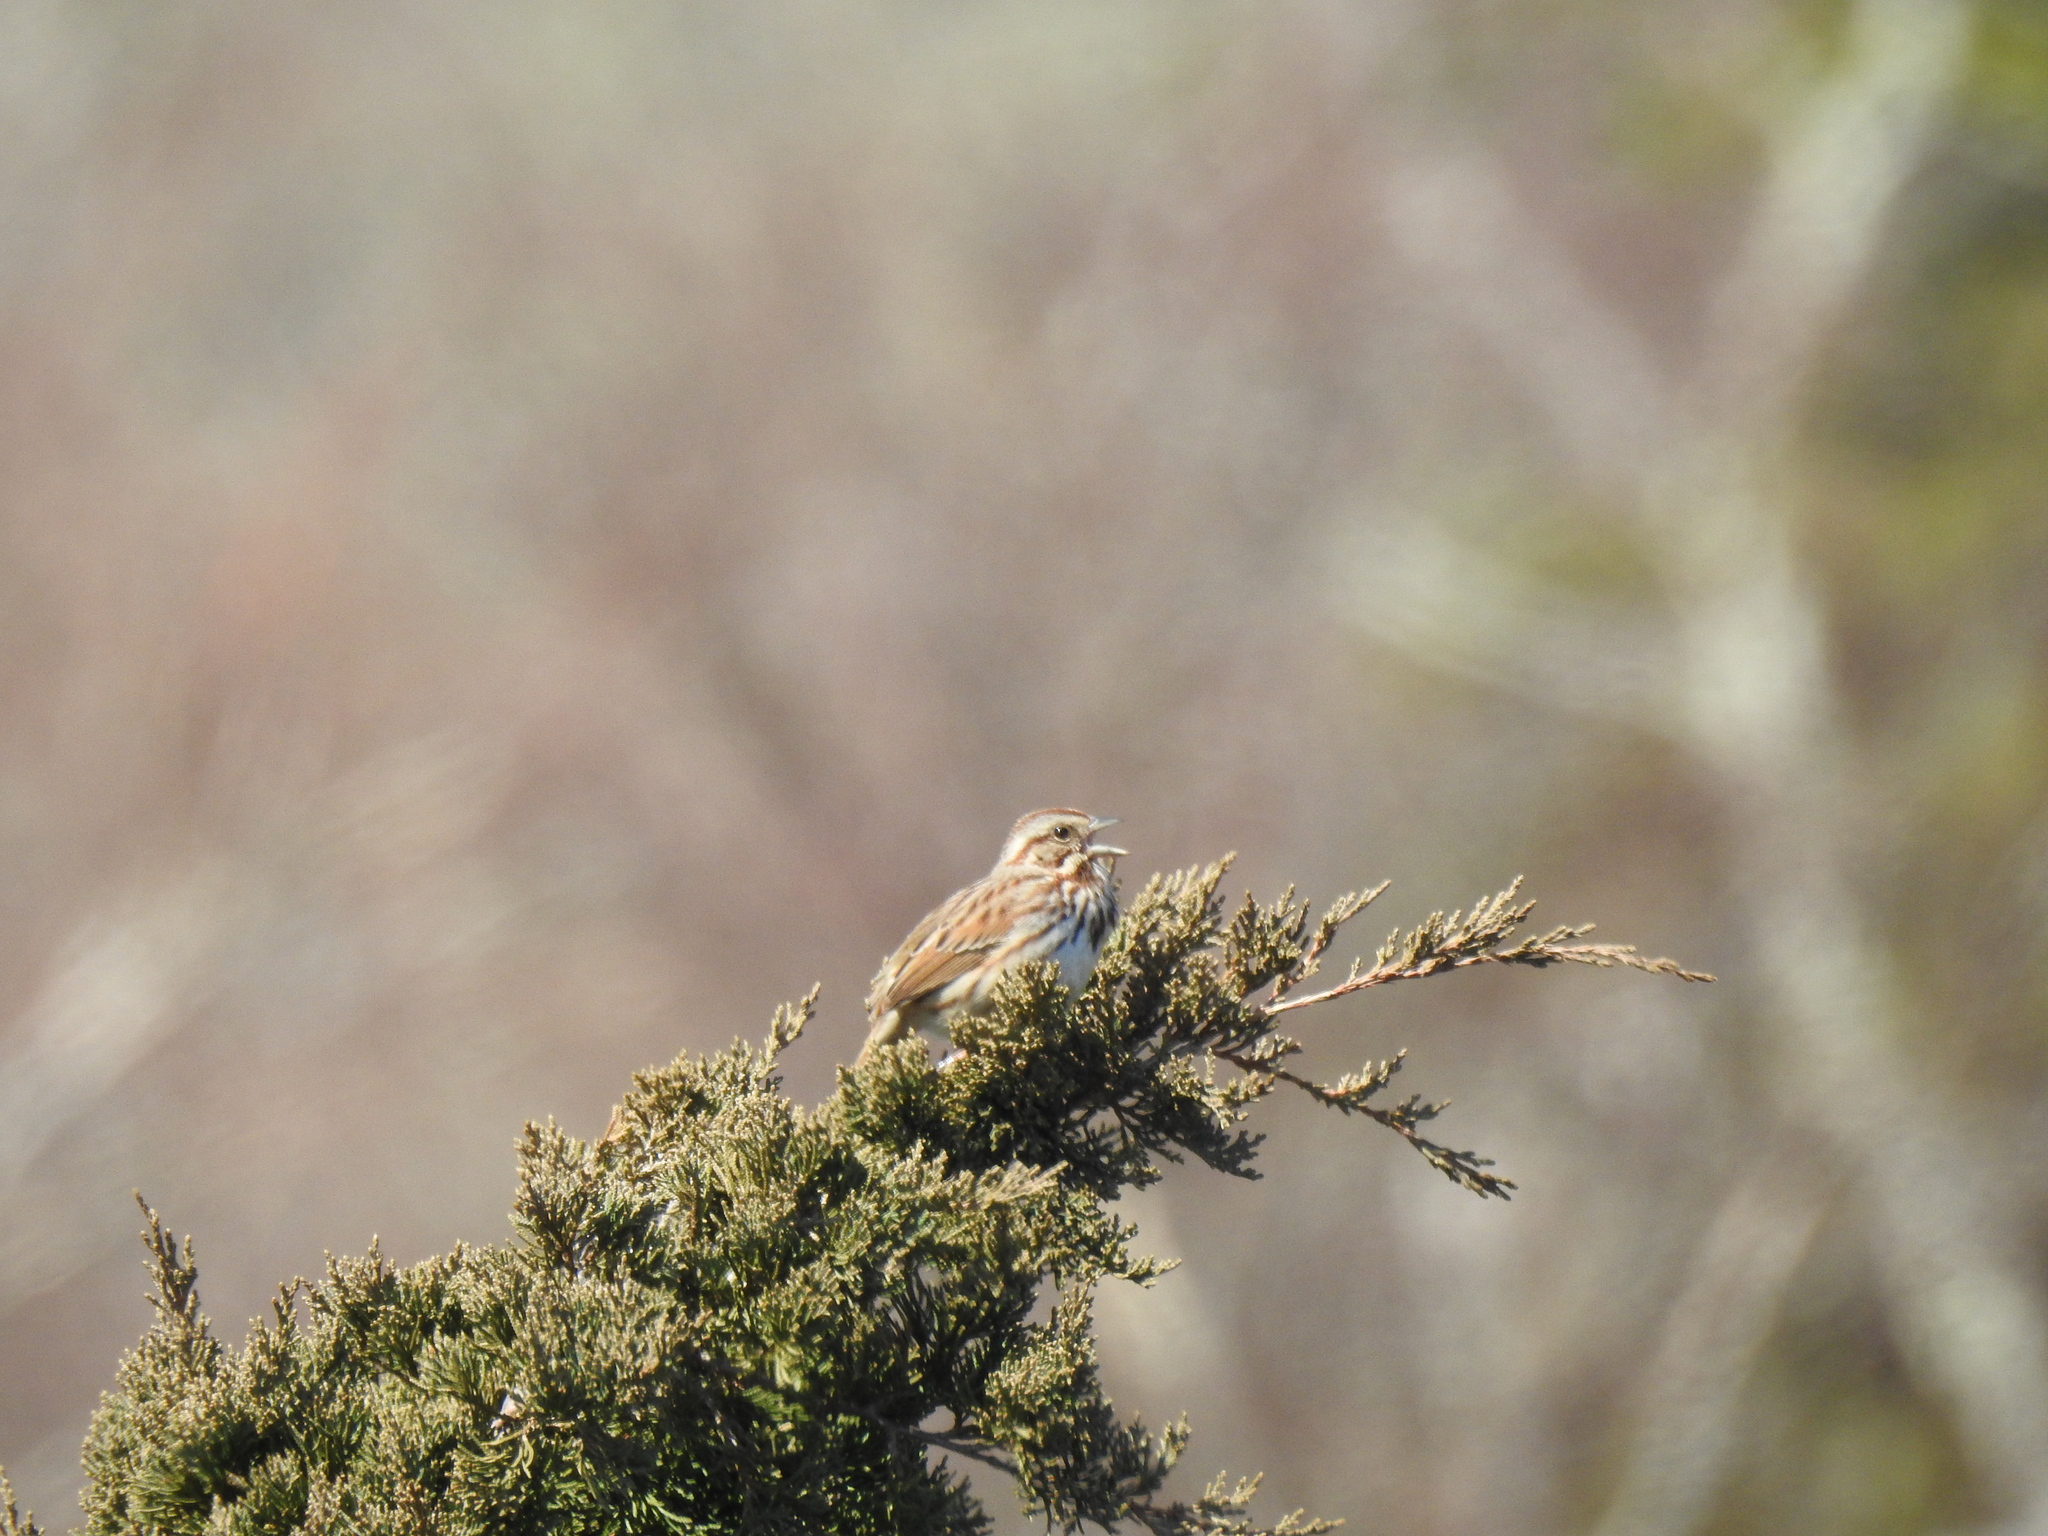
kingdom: Animalia
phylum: Chordata
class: Aves
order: Passeriformes
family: Passerellidae
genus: Melospiza
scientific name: Melospiza melodia
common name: Song sparrow
